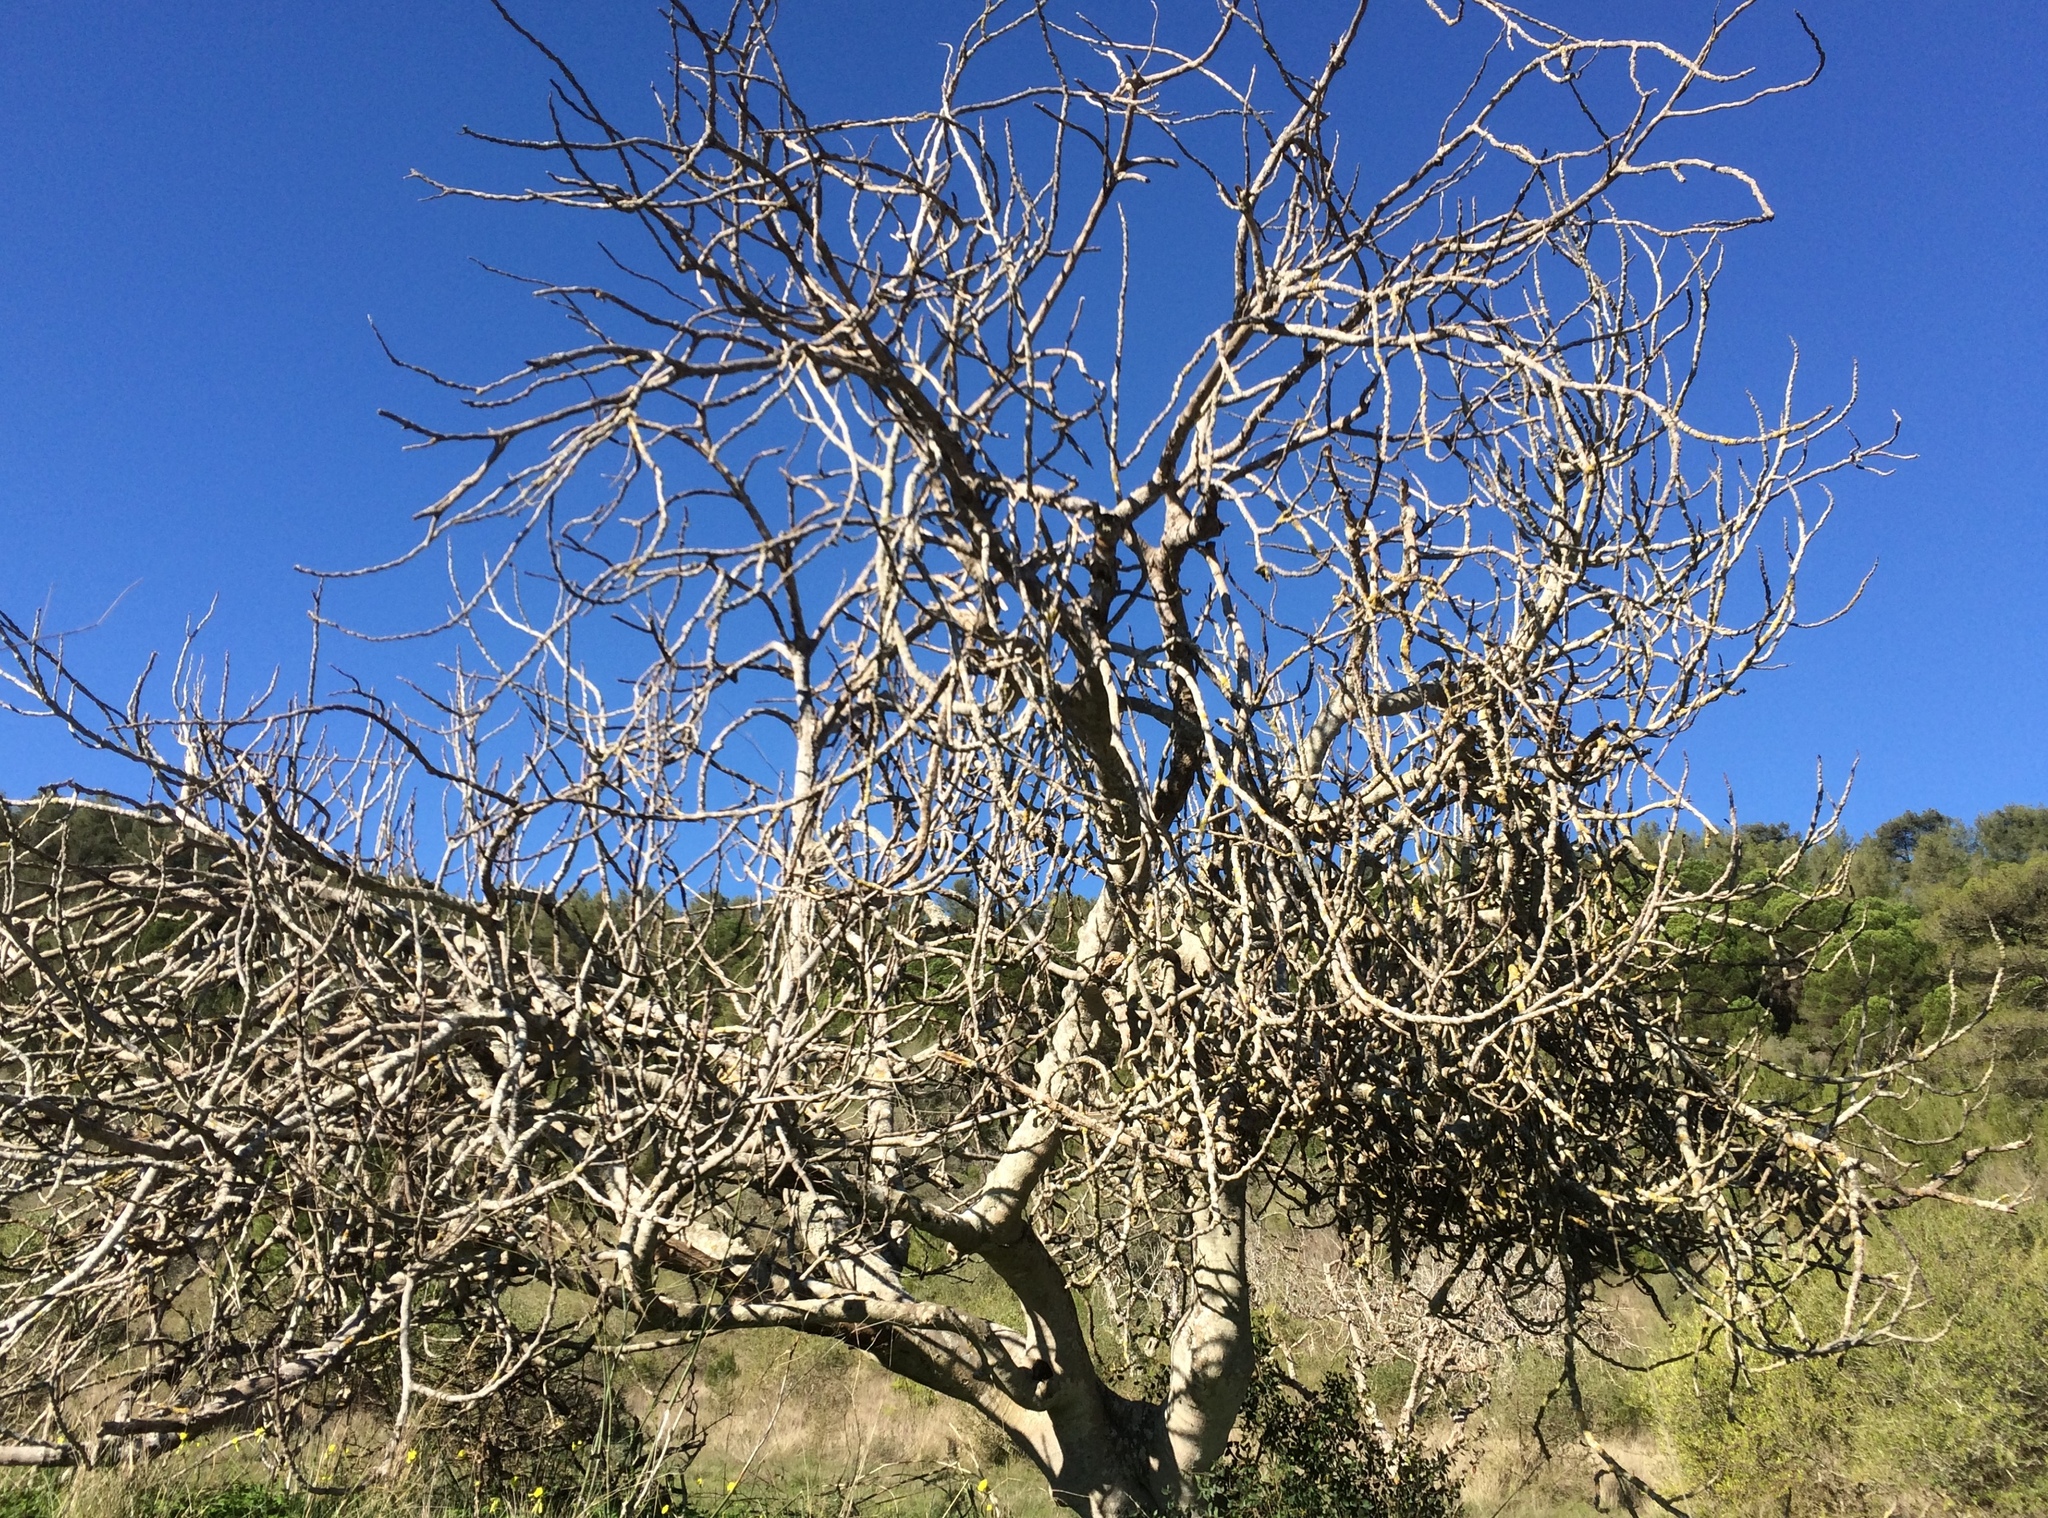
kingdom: Plantae
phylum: Tracheophyta
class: Magnoliopsida
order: Rosales
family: Moraceae
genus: Ficus
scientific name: Ficus carica
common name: Fig
